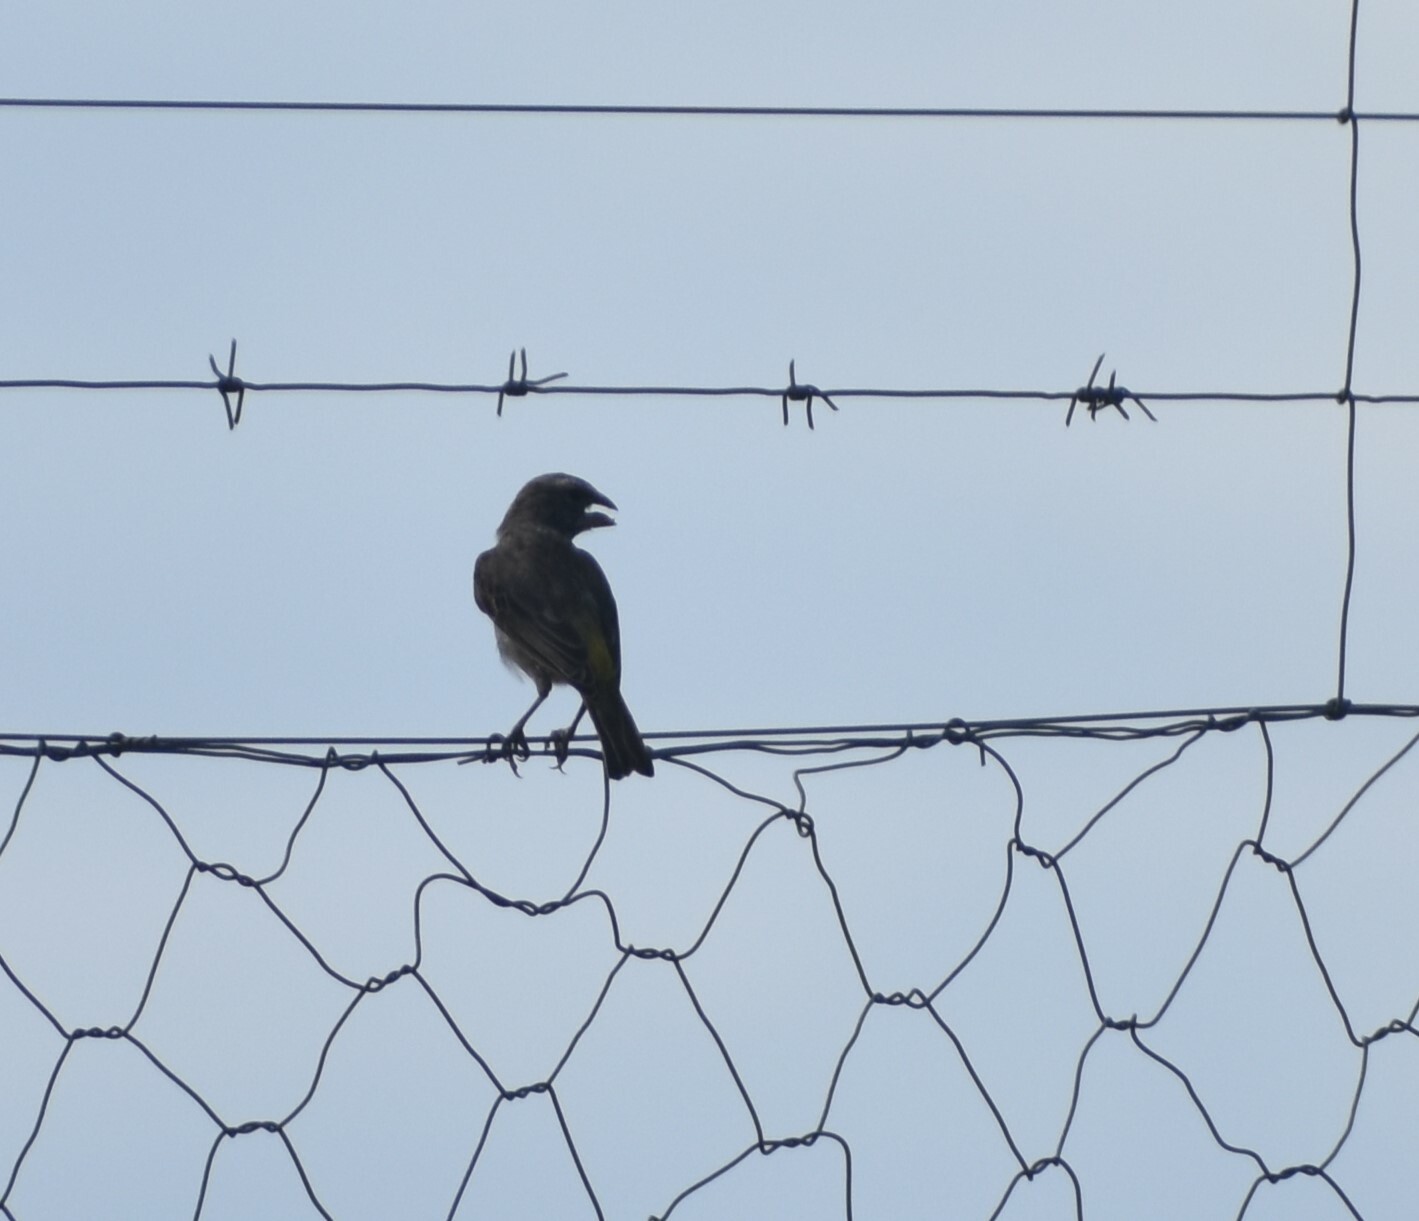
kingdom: Animalia
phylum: Chordata
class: Aves
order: Passeriformes
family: Fringillidae
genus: Crithagra
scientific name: Crithagra albogularis
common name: White-throated canary
